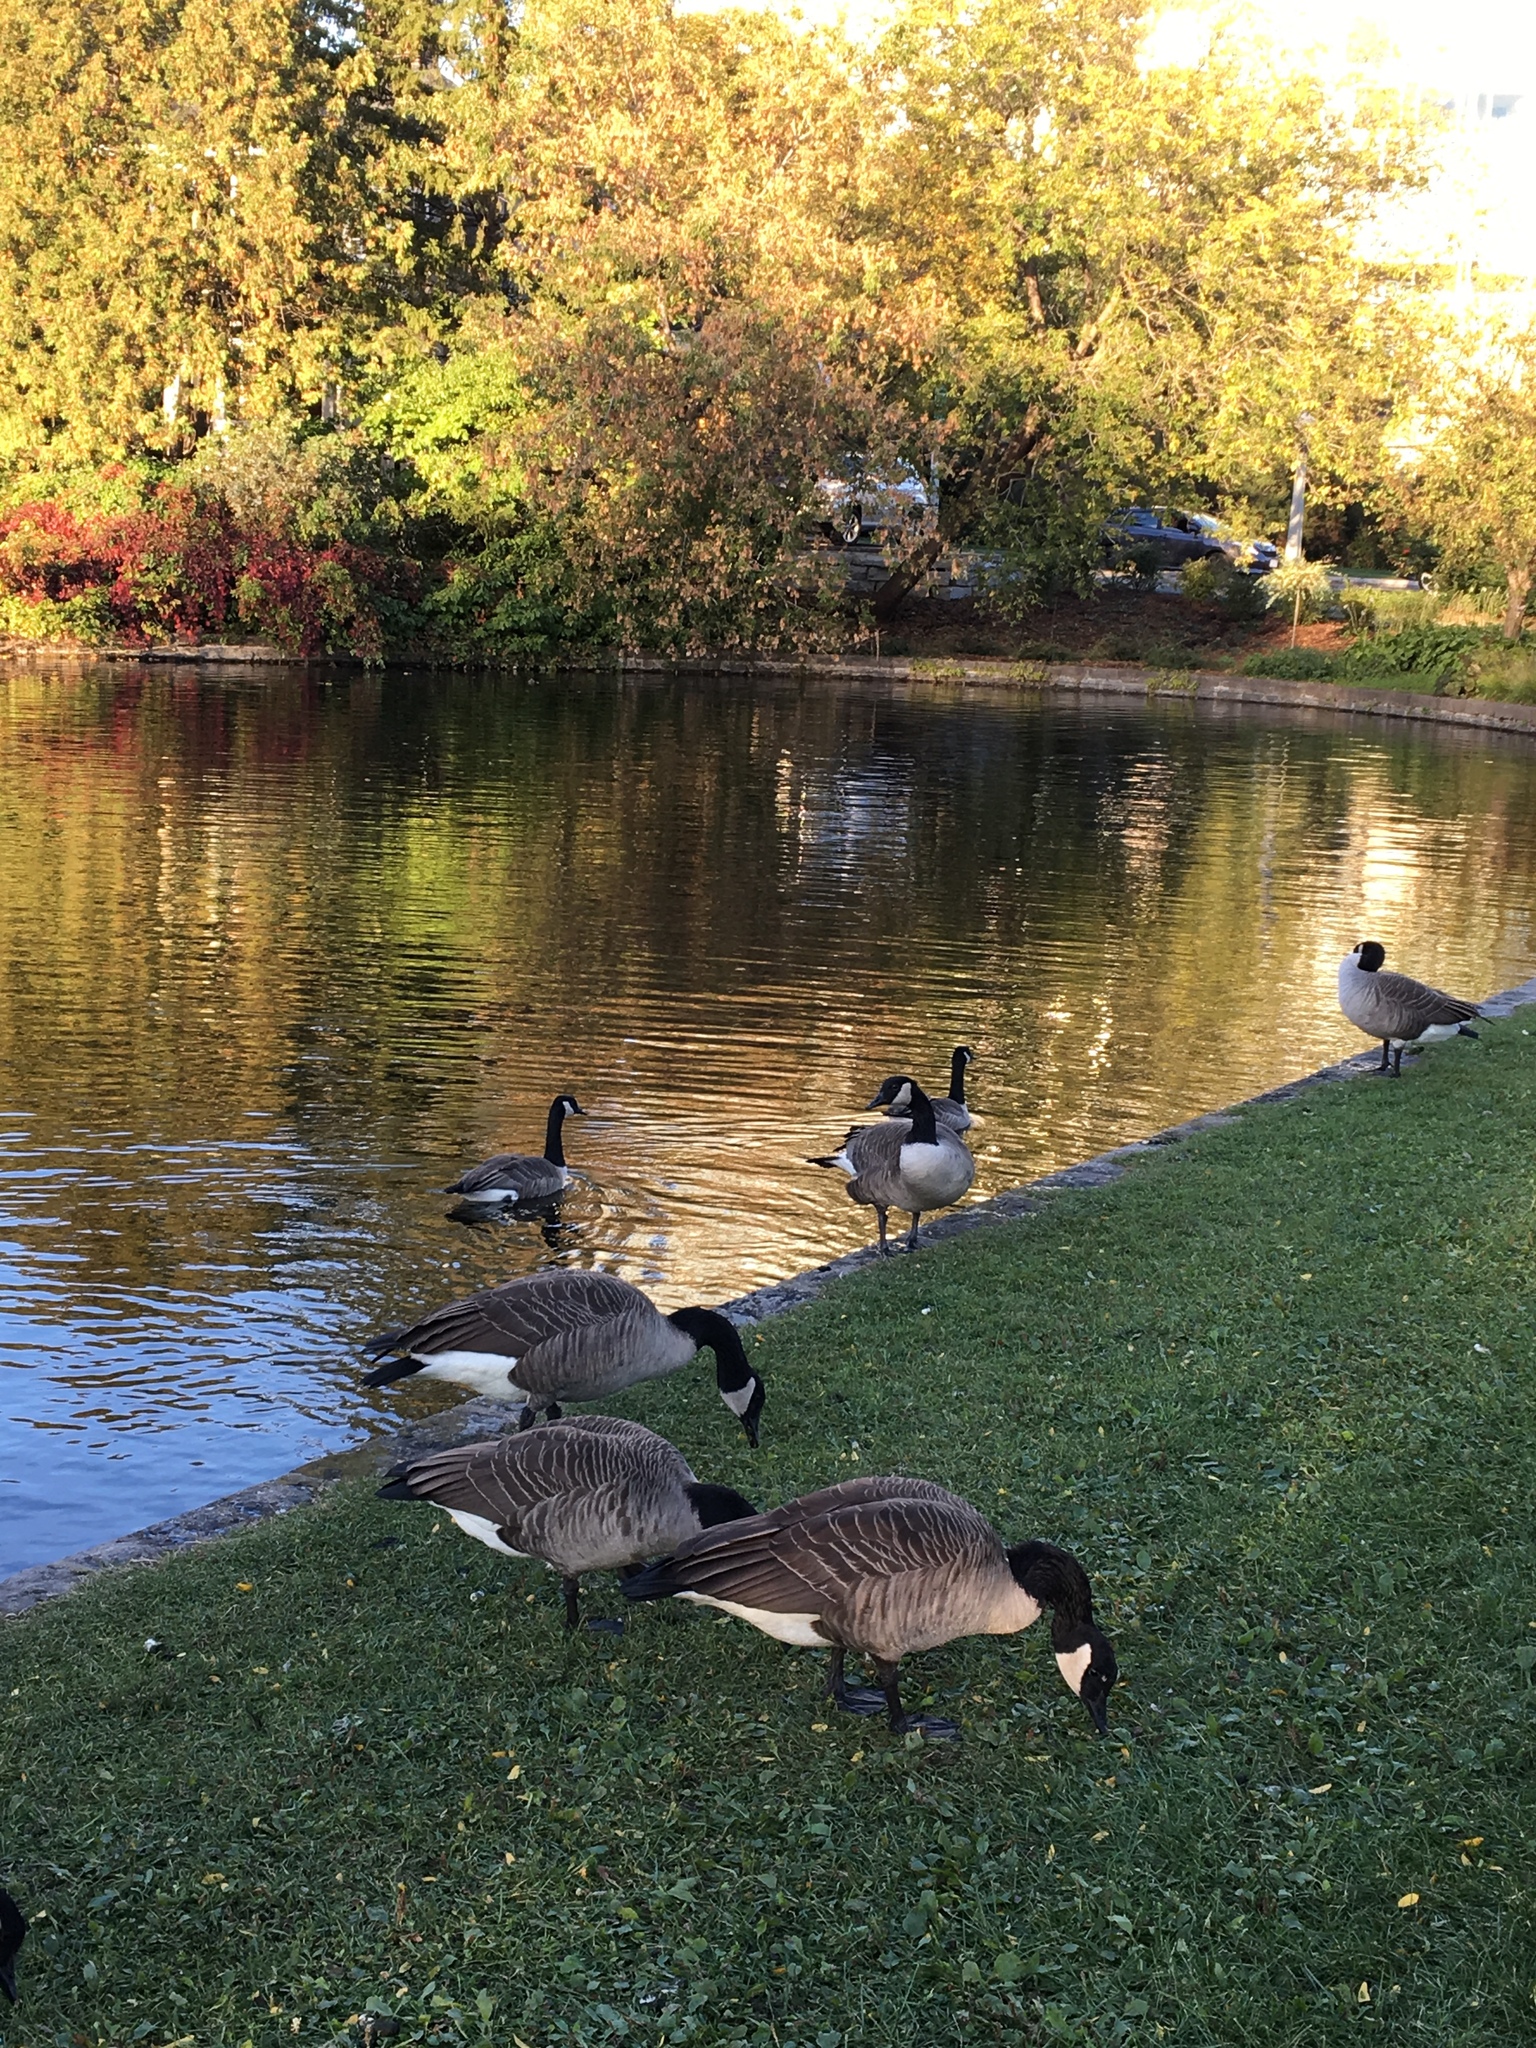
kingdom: Animalia
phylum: Chordata
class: Aves
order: Anseriformes
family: Anatidae
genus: Branta
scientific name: Branta canadensis
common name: Canada goose
